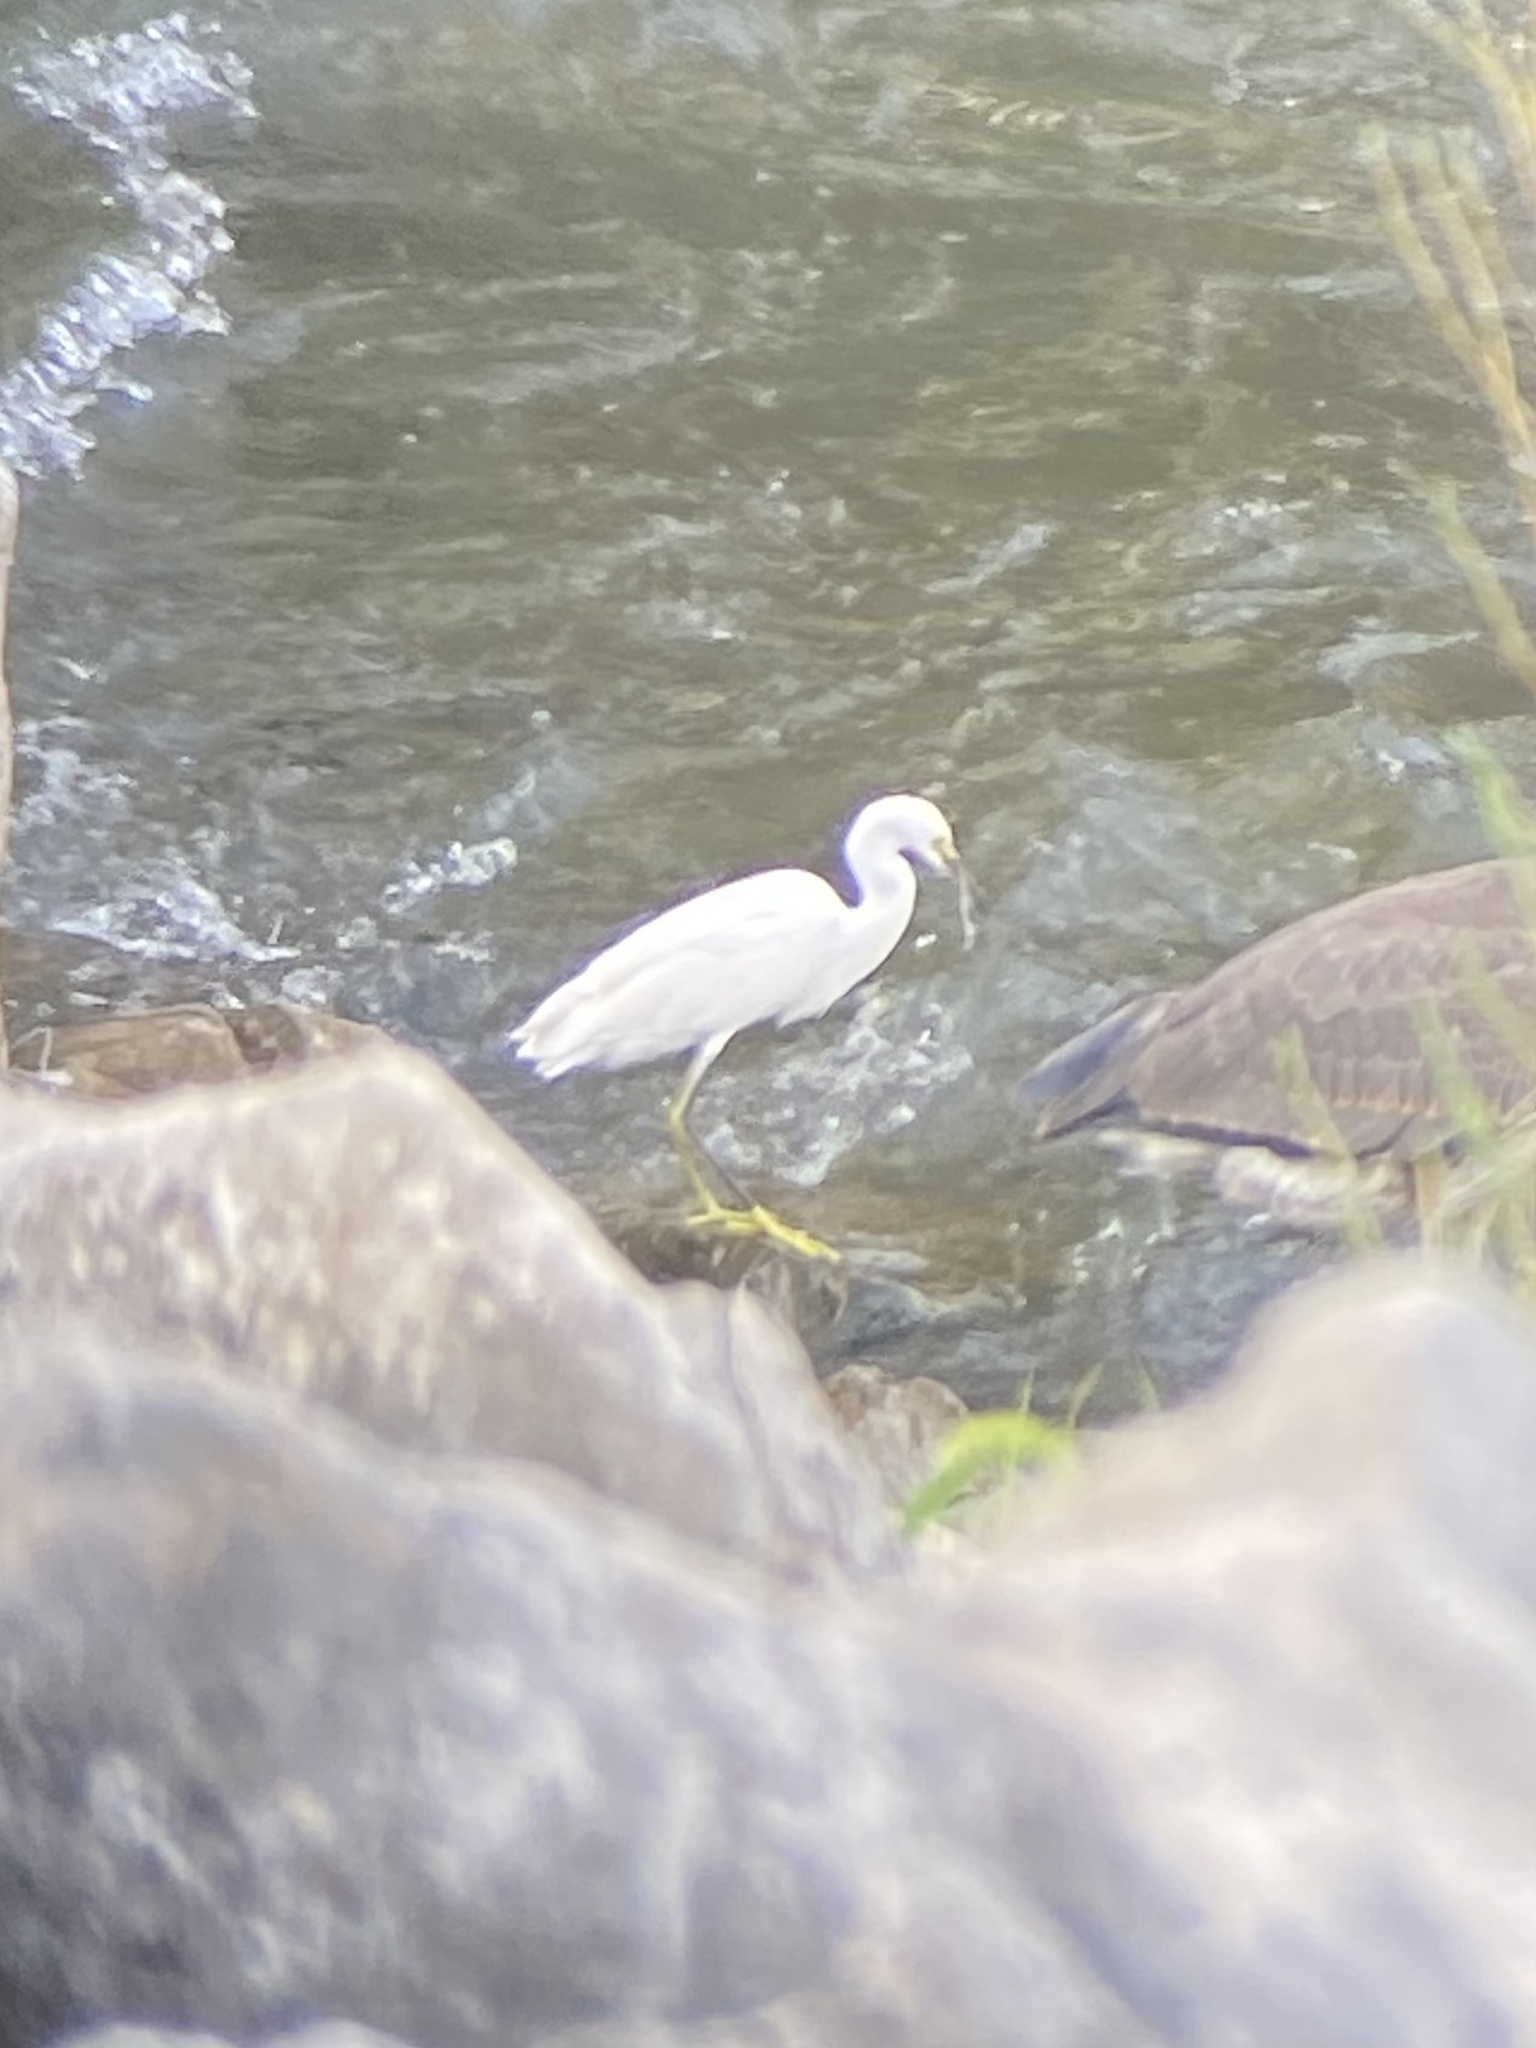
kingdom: Animalia
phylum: Chordata
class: Aves
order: Pelecaniformes
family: Ardeidae
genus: Egretta
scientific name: Egretta thula
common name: Snowy egret
